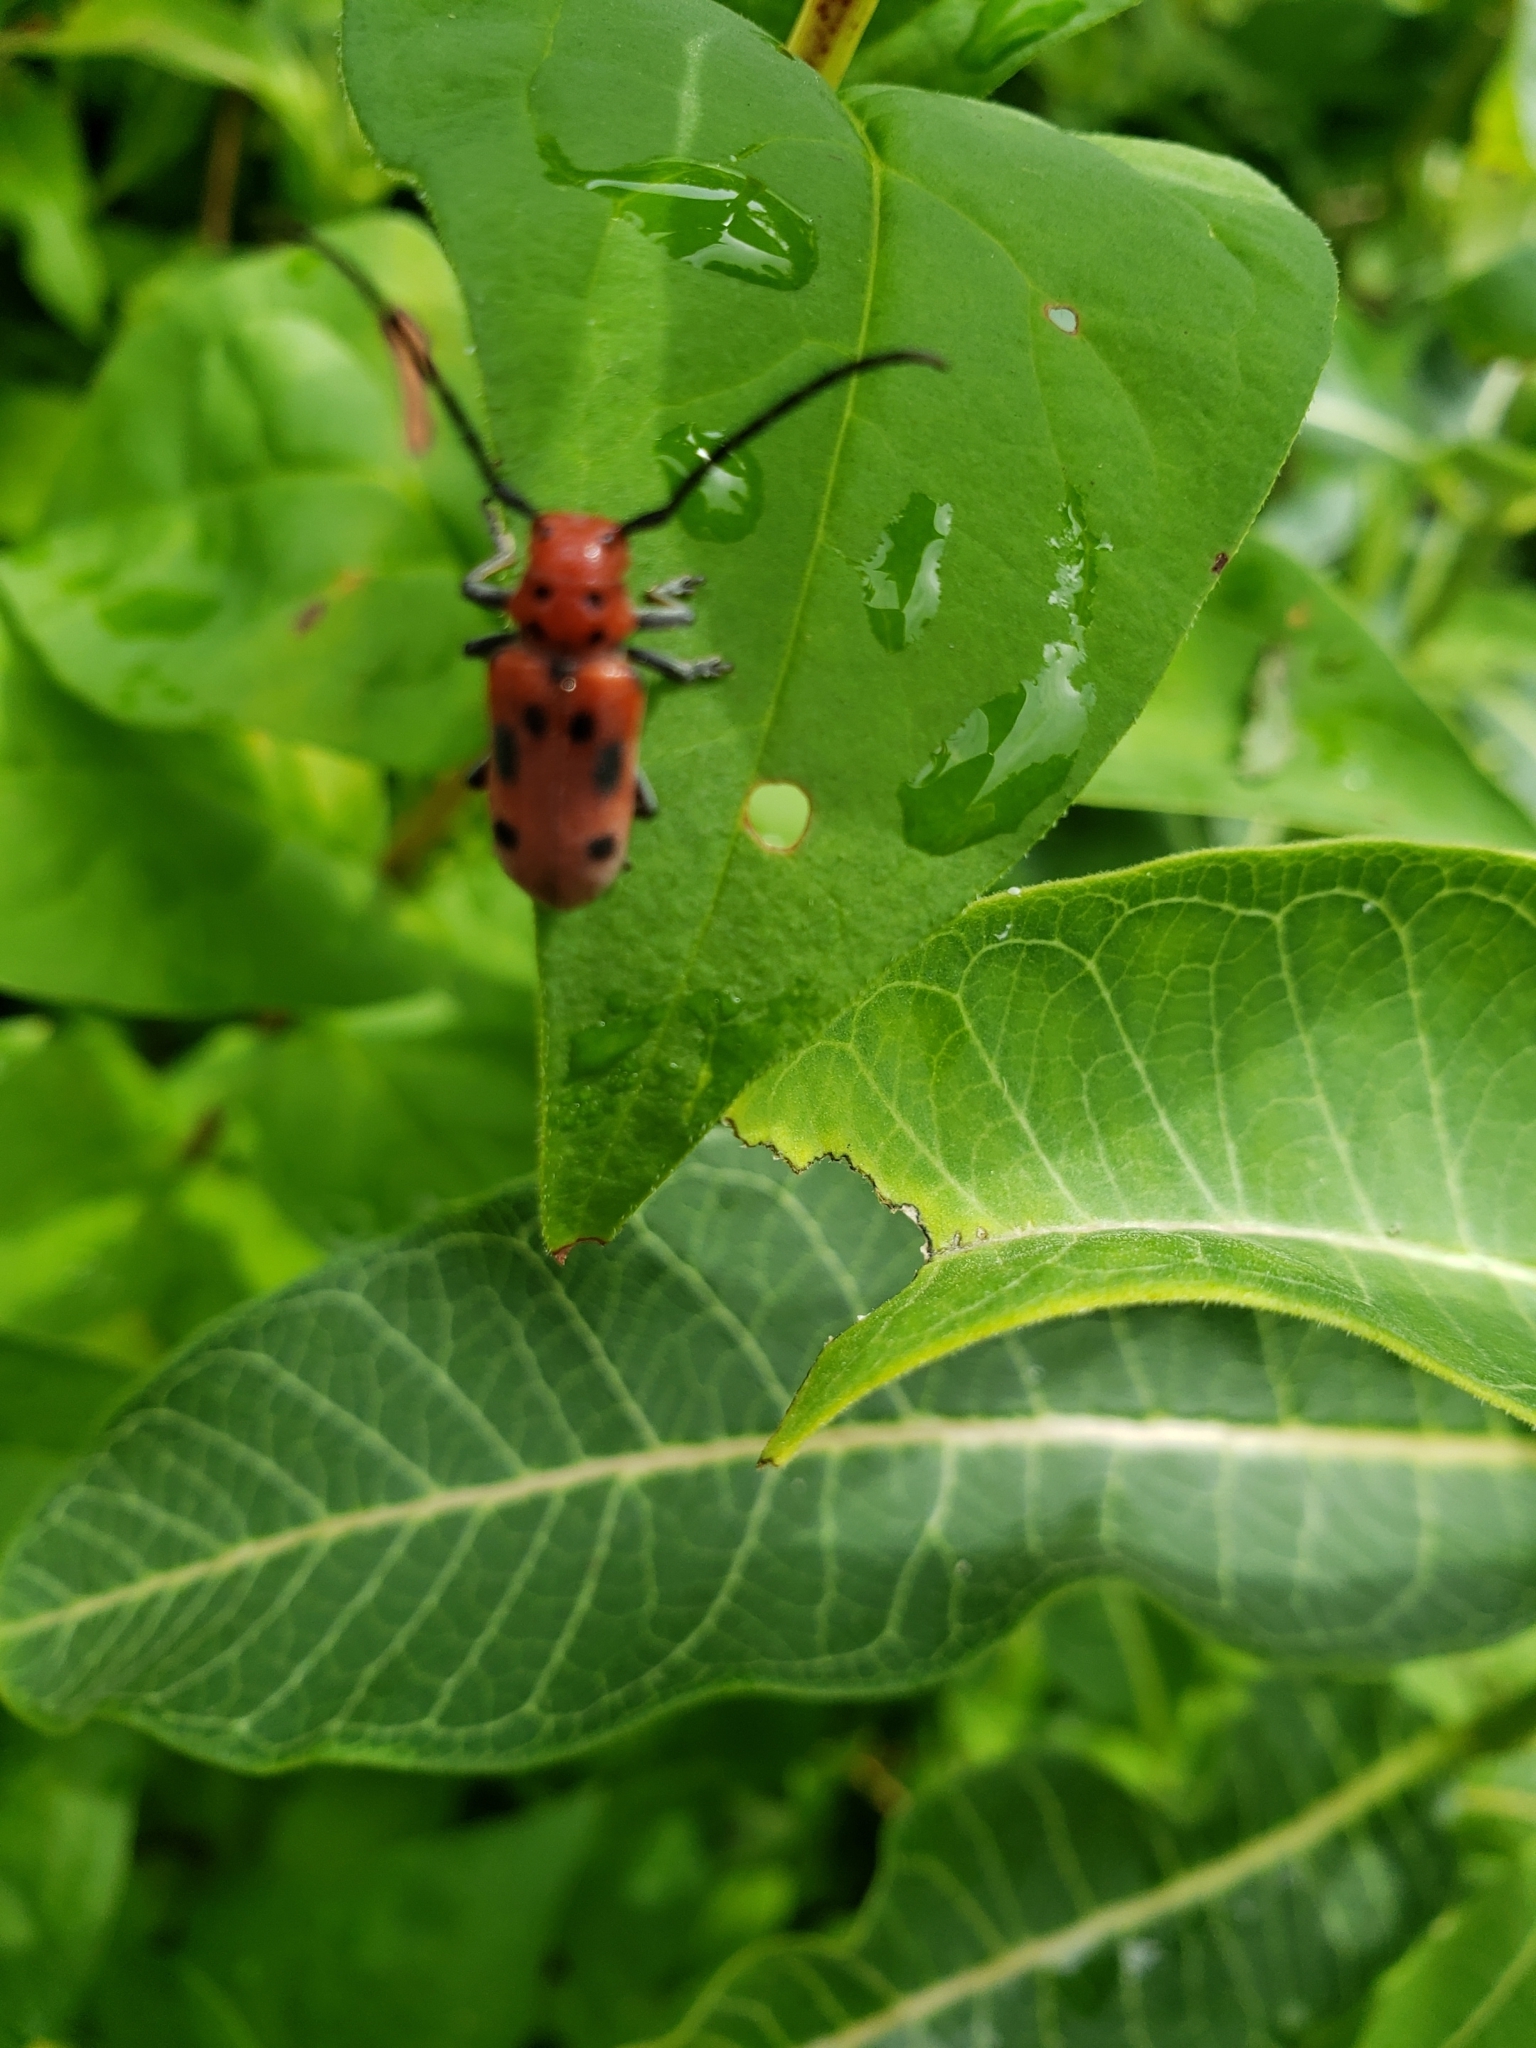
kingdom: Animalia
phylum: Arthropoda
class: Insecta
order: Coleoptera
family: Cerambycidae
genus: Tetraopes
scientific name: Tetraopes tetrophthalmus
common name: Red milkweed beetle
